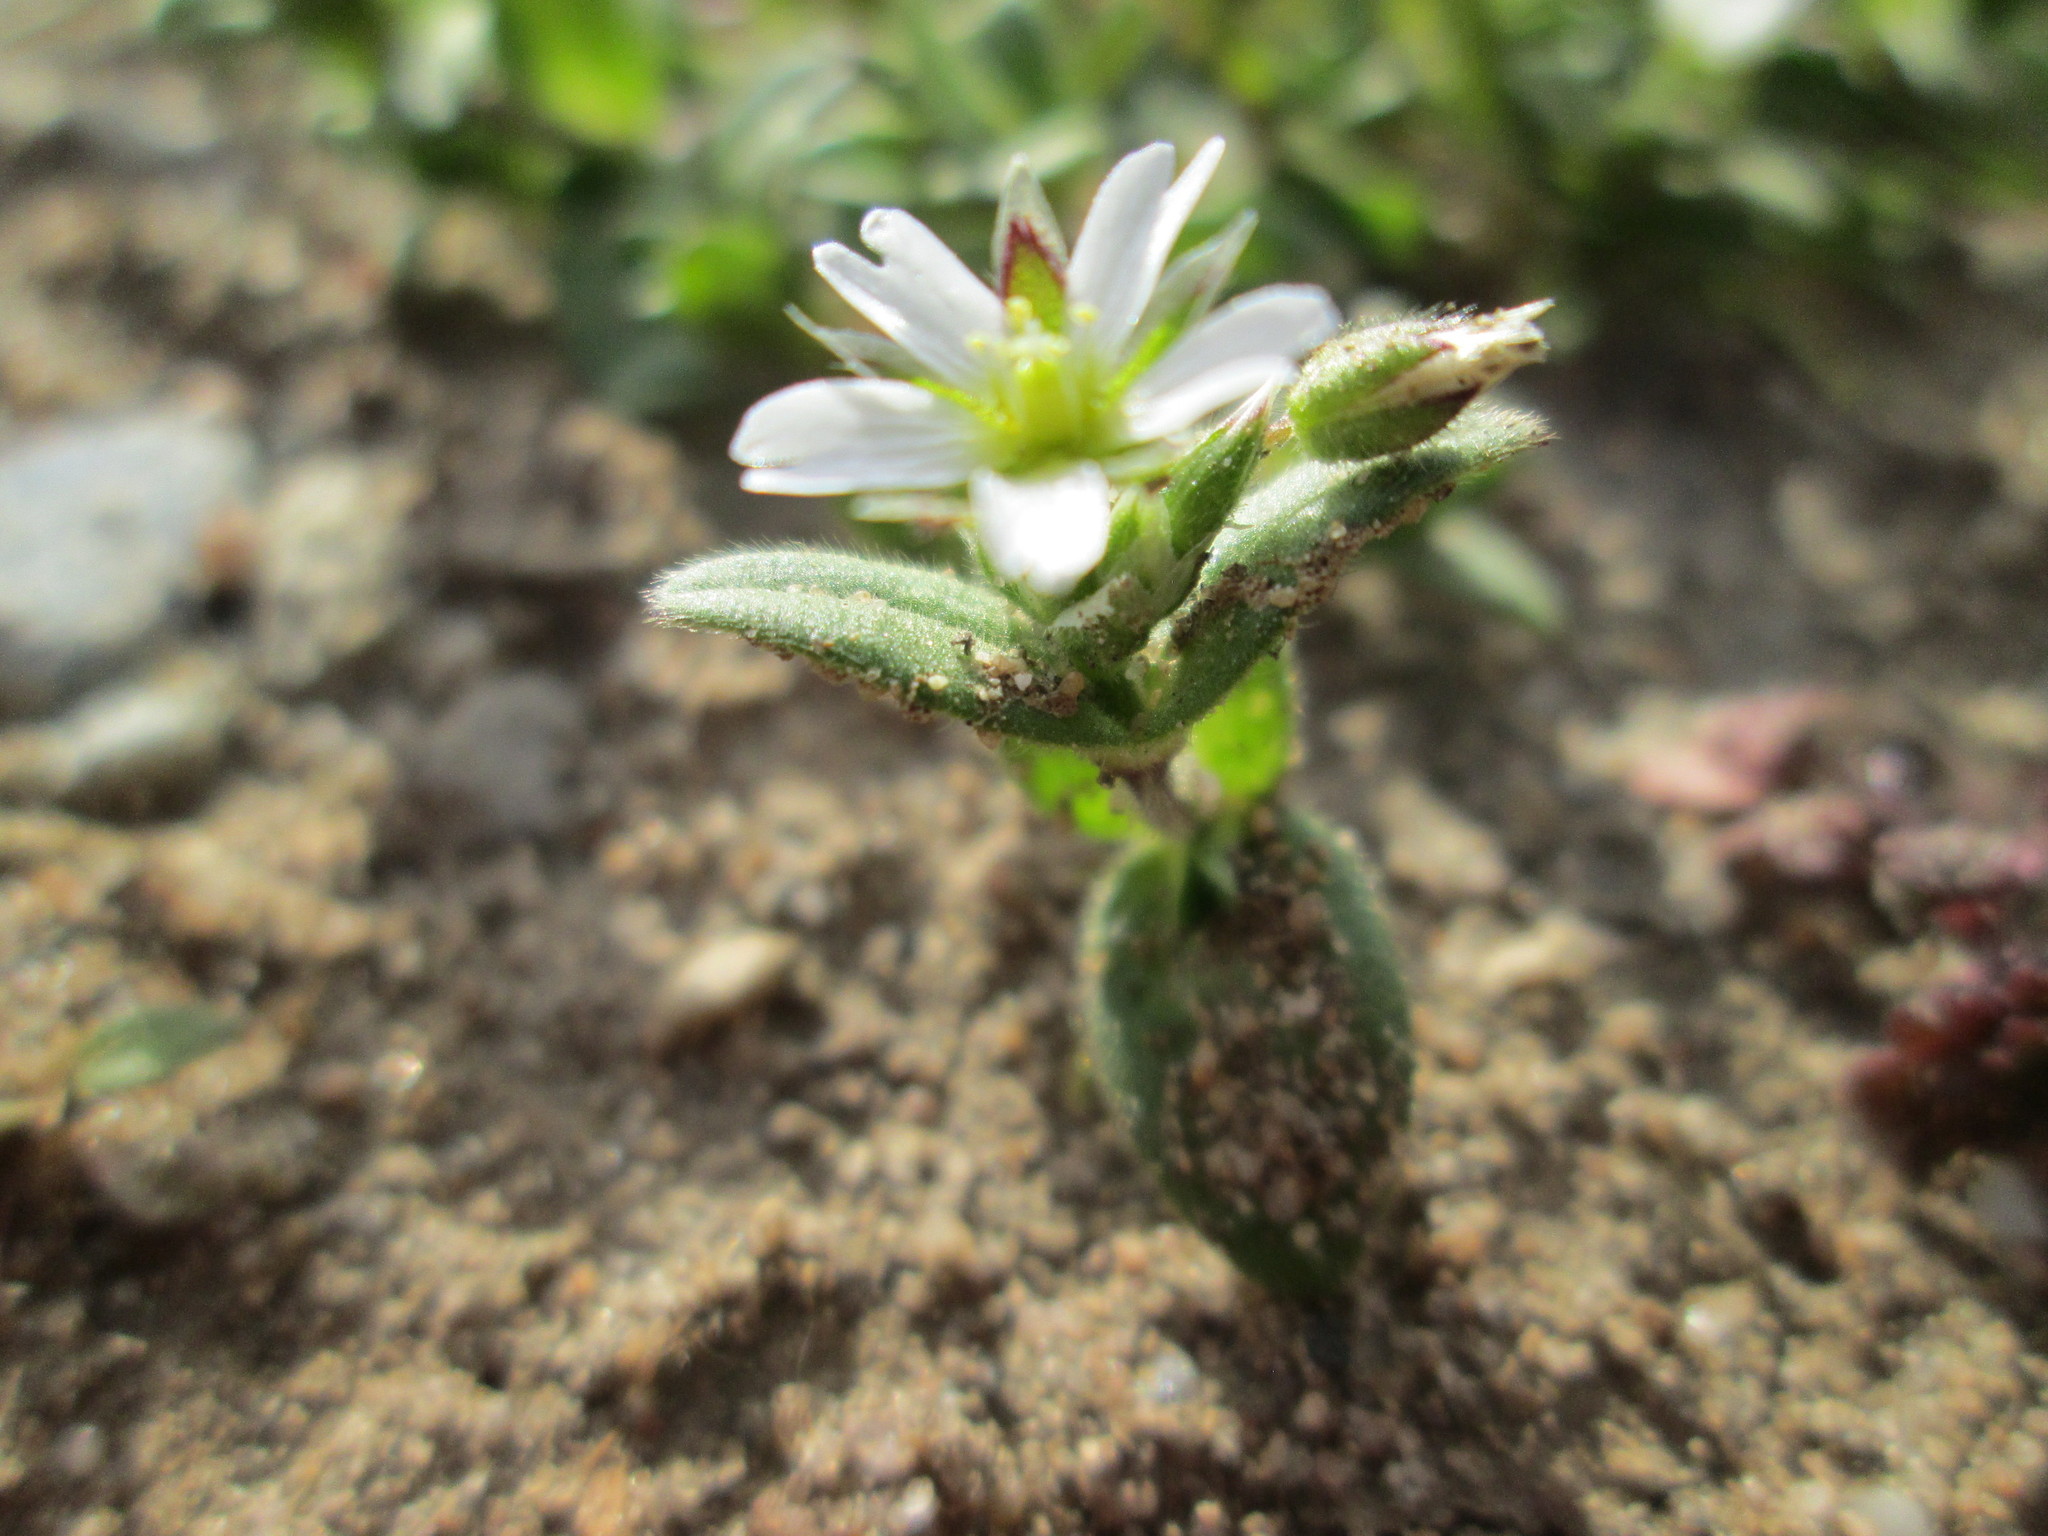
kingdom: Plantae
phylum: Tracheophyta
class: Magnoliopsida
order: Caryophyllales
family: Caryophyllaceae
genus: Cerastium
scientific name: Cerastium semidecandrum
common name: Little mouse-ear
